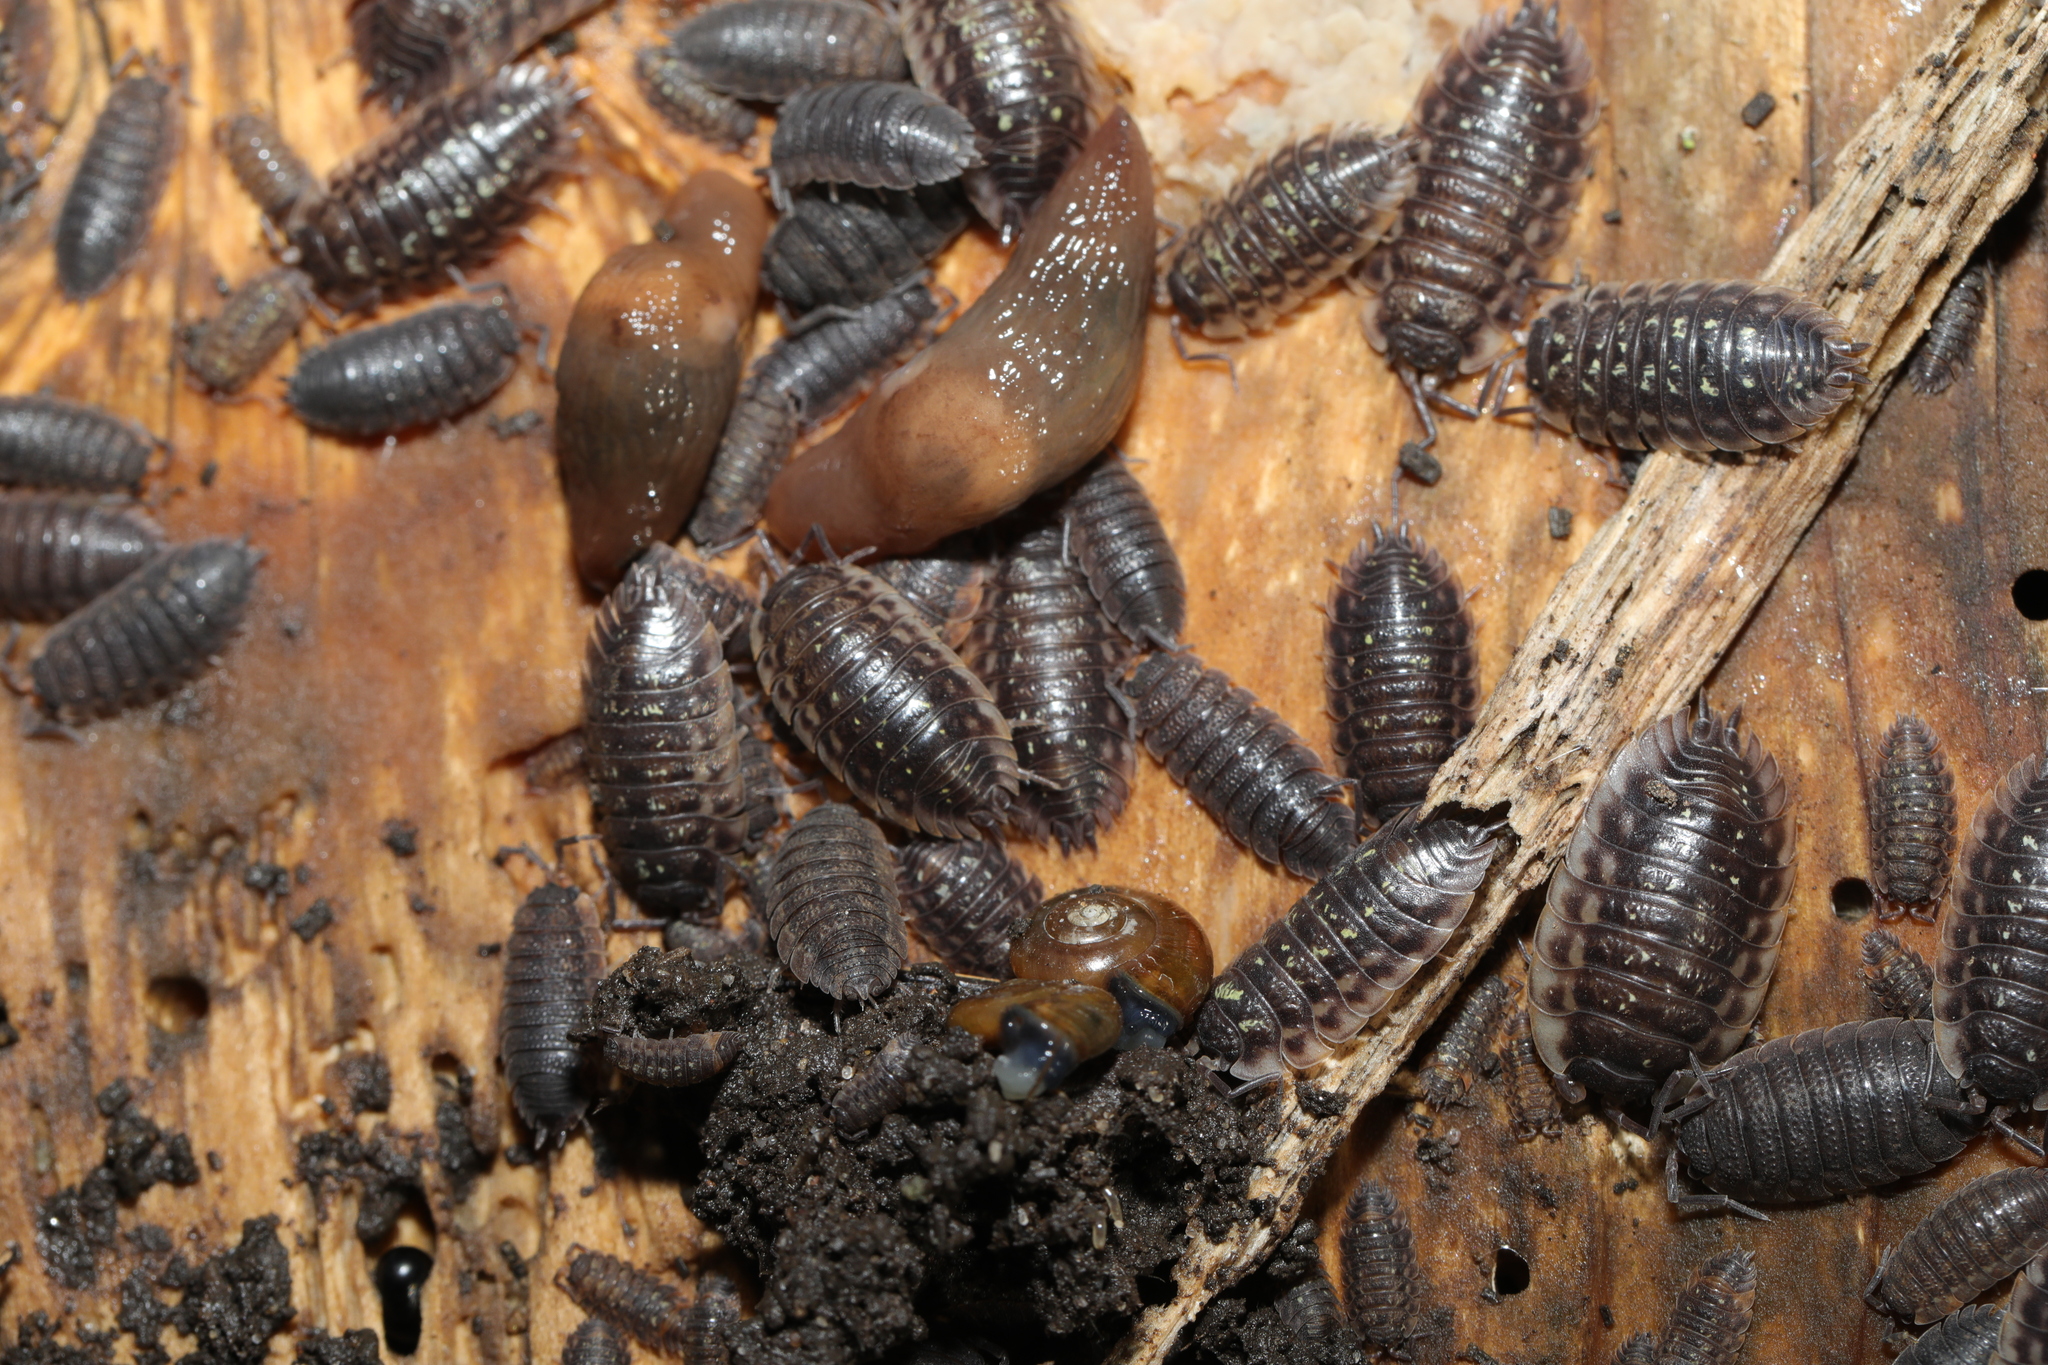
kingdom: Animalia
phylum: Arthropoda
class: Malacostraca
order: Isopoda
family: Oniscidae
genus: Oniscus
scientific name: Oniscus asellus
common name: Common shiny woodlouse
